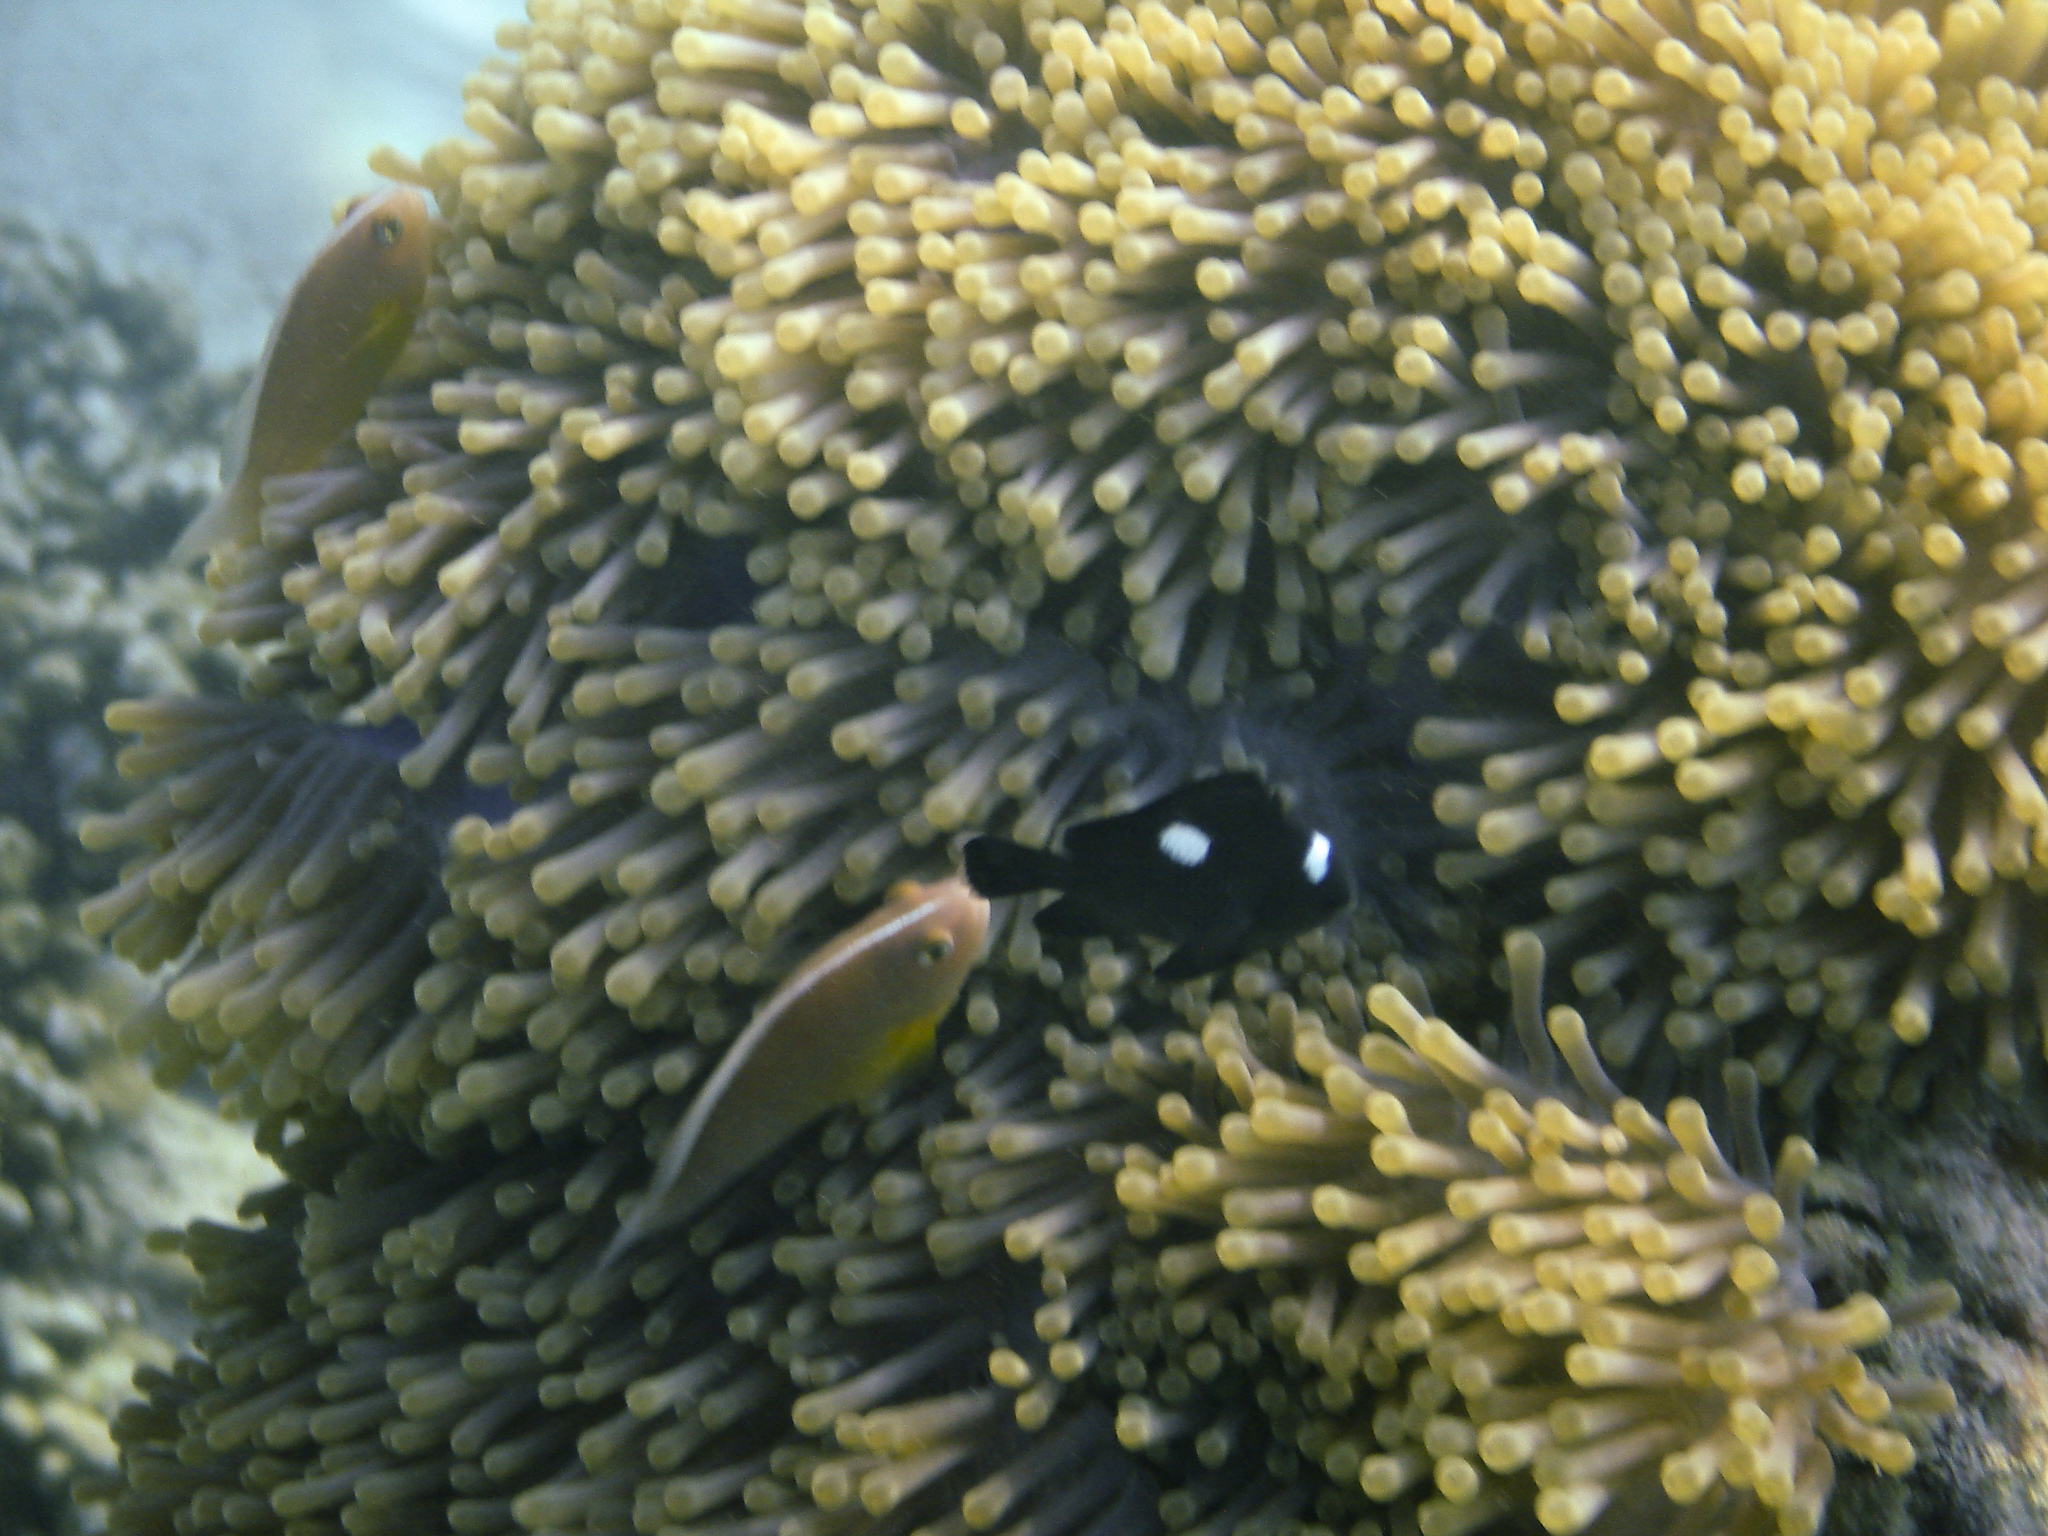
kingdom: Animalia
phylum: Chordata
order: Perciformes
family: Pomacentridae
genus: Dascyllus
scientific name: Dascyllus trimaculatus
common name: Threespot dascyllus
